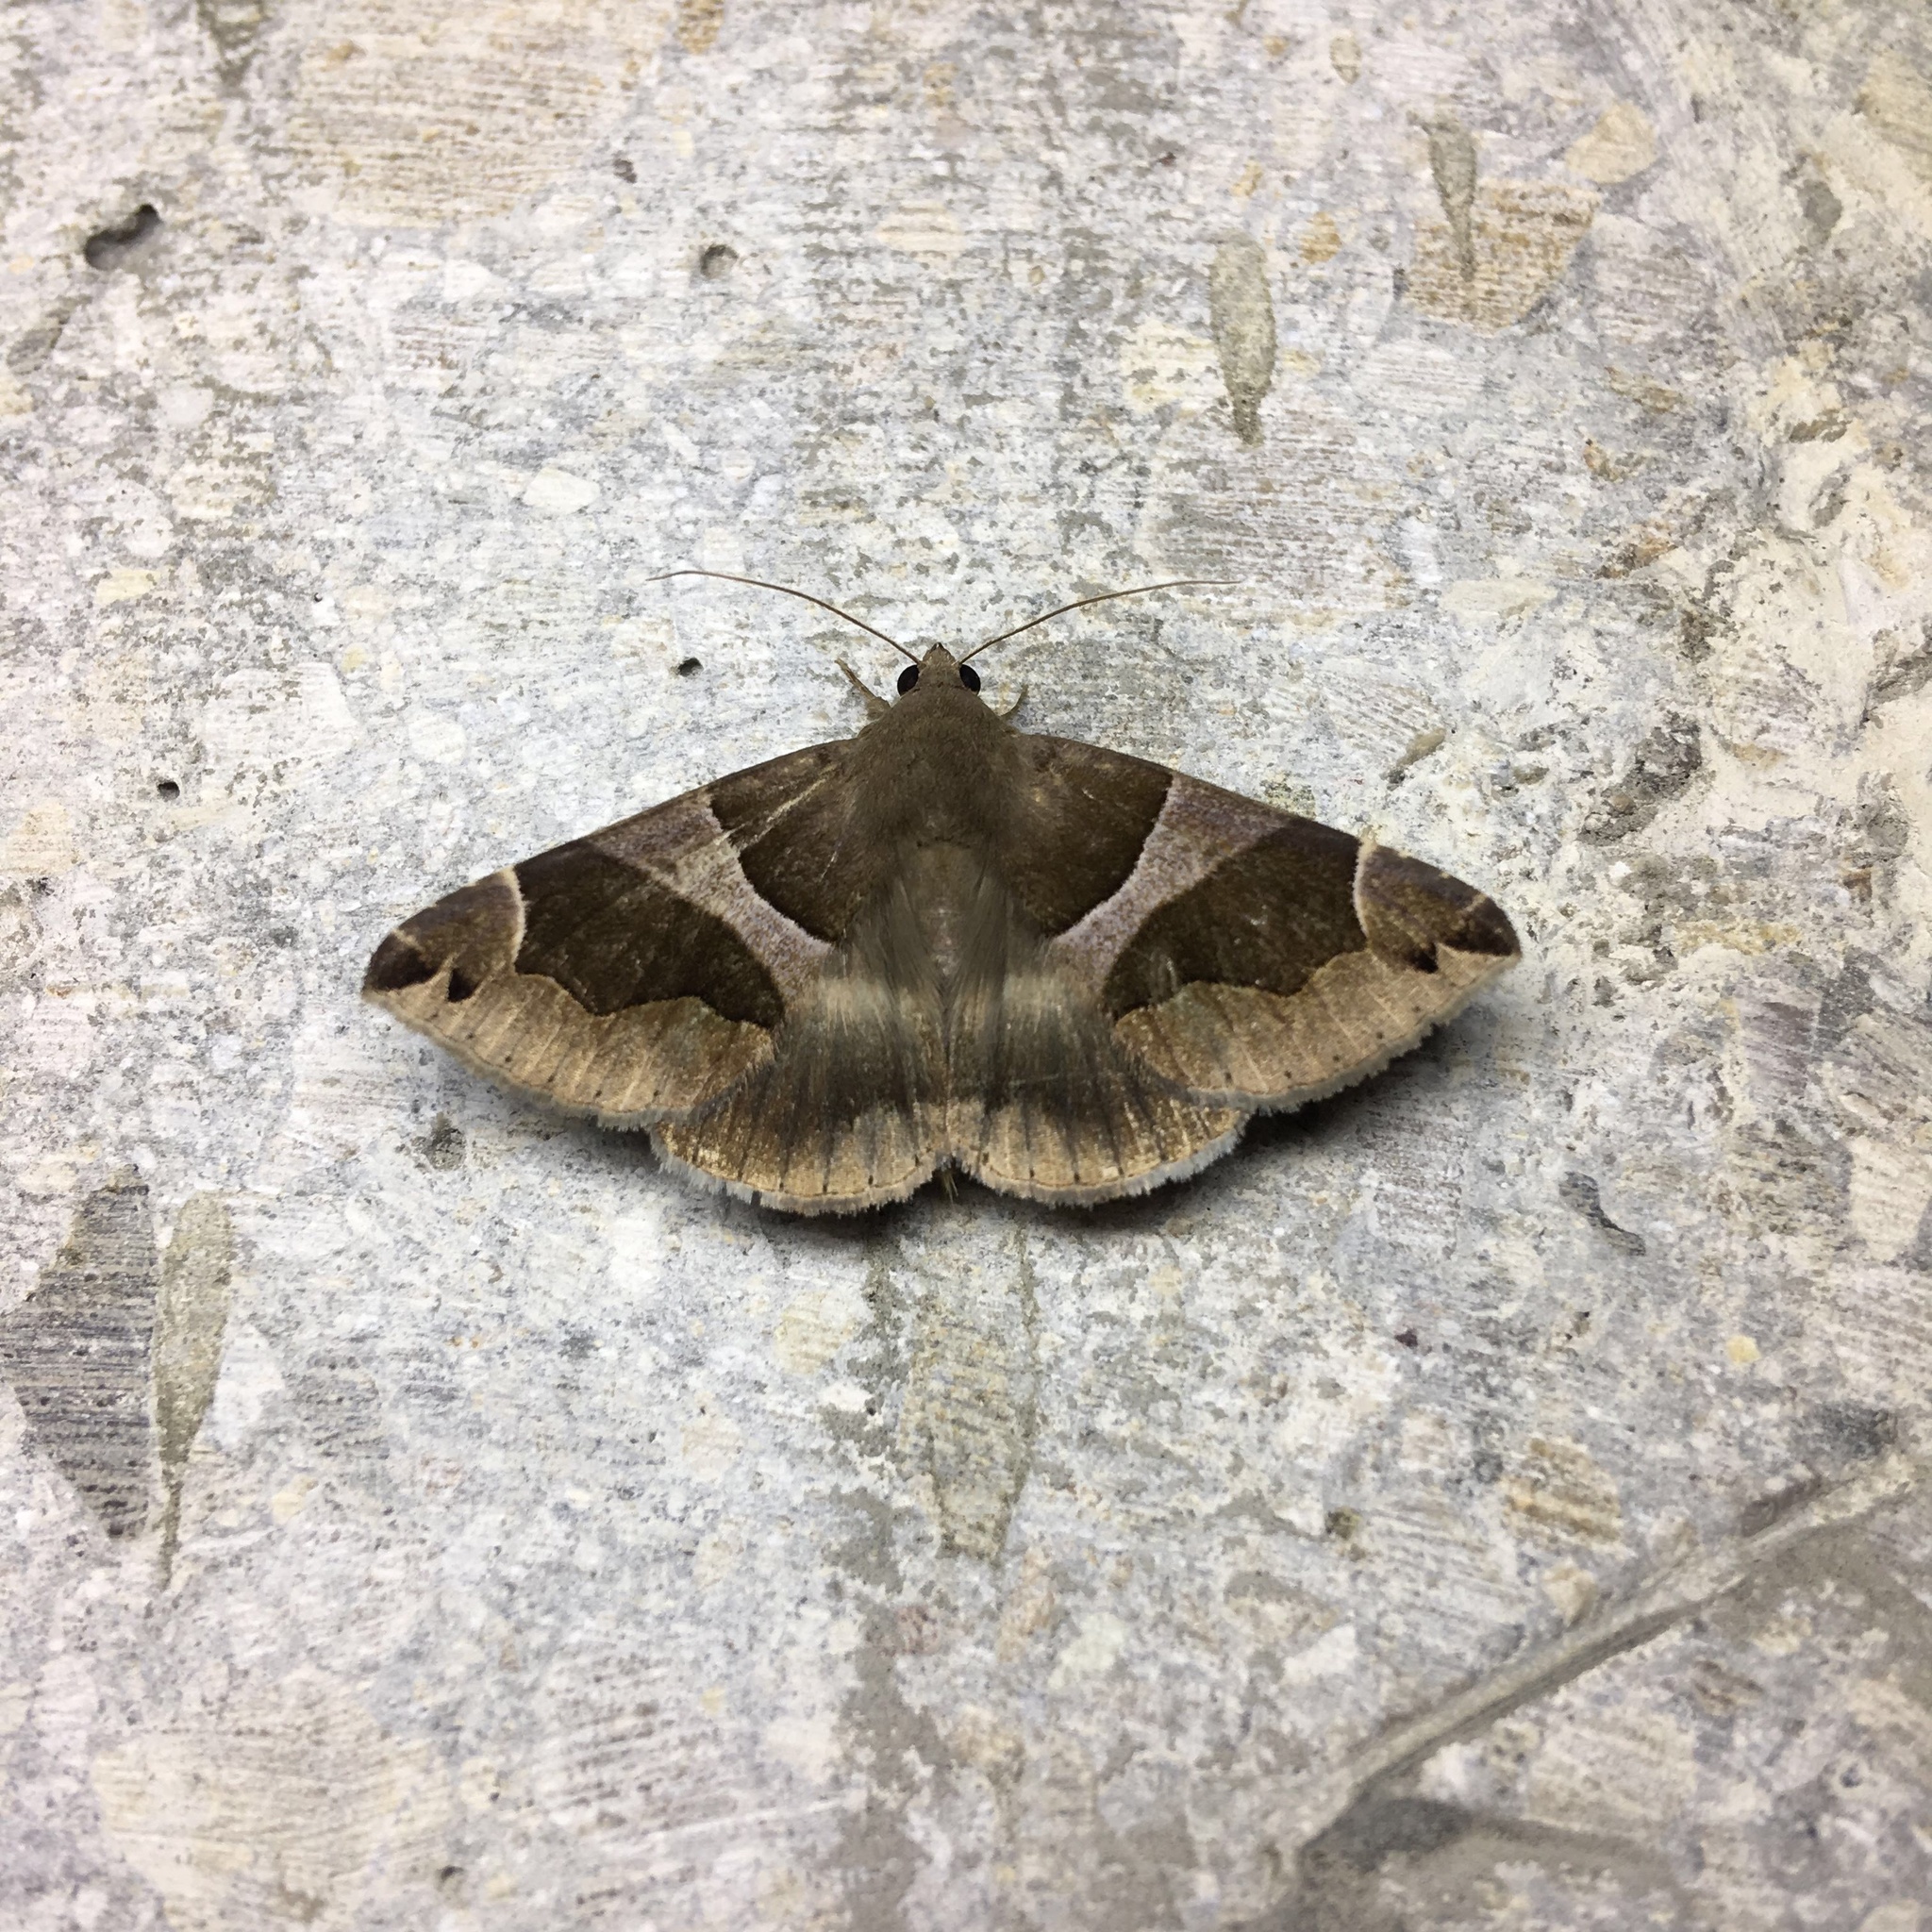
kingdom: Animalia
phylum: Arthropoda
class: Insecta
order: Lepidoptera
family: Erebidae
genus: Dysgonia
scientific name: Dysgonia algira
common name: Passenger
